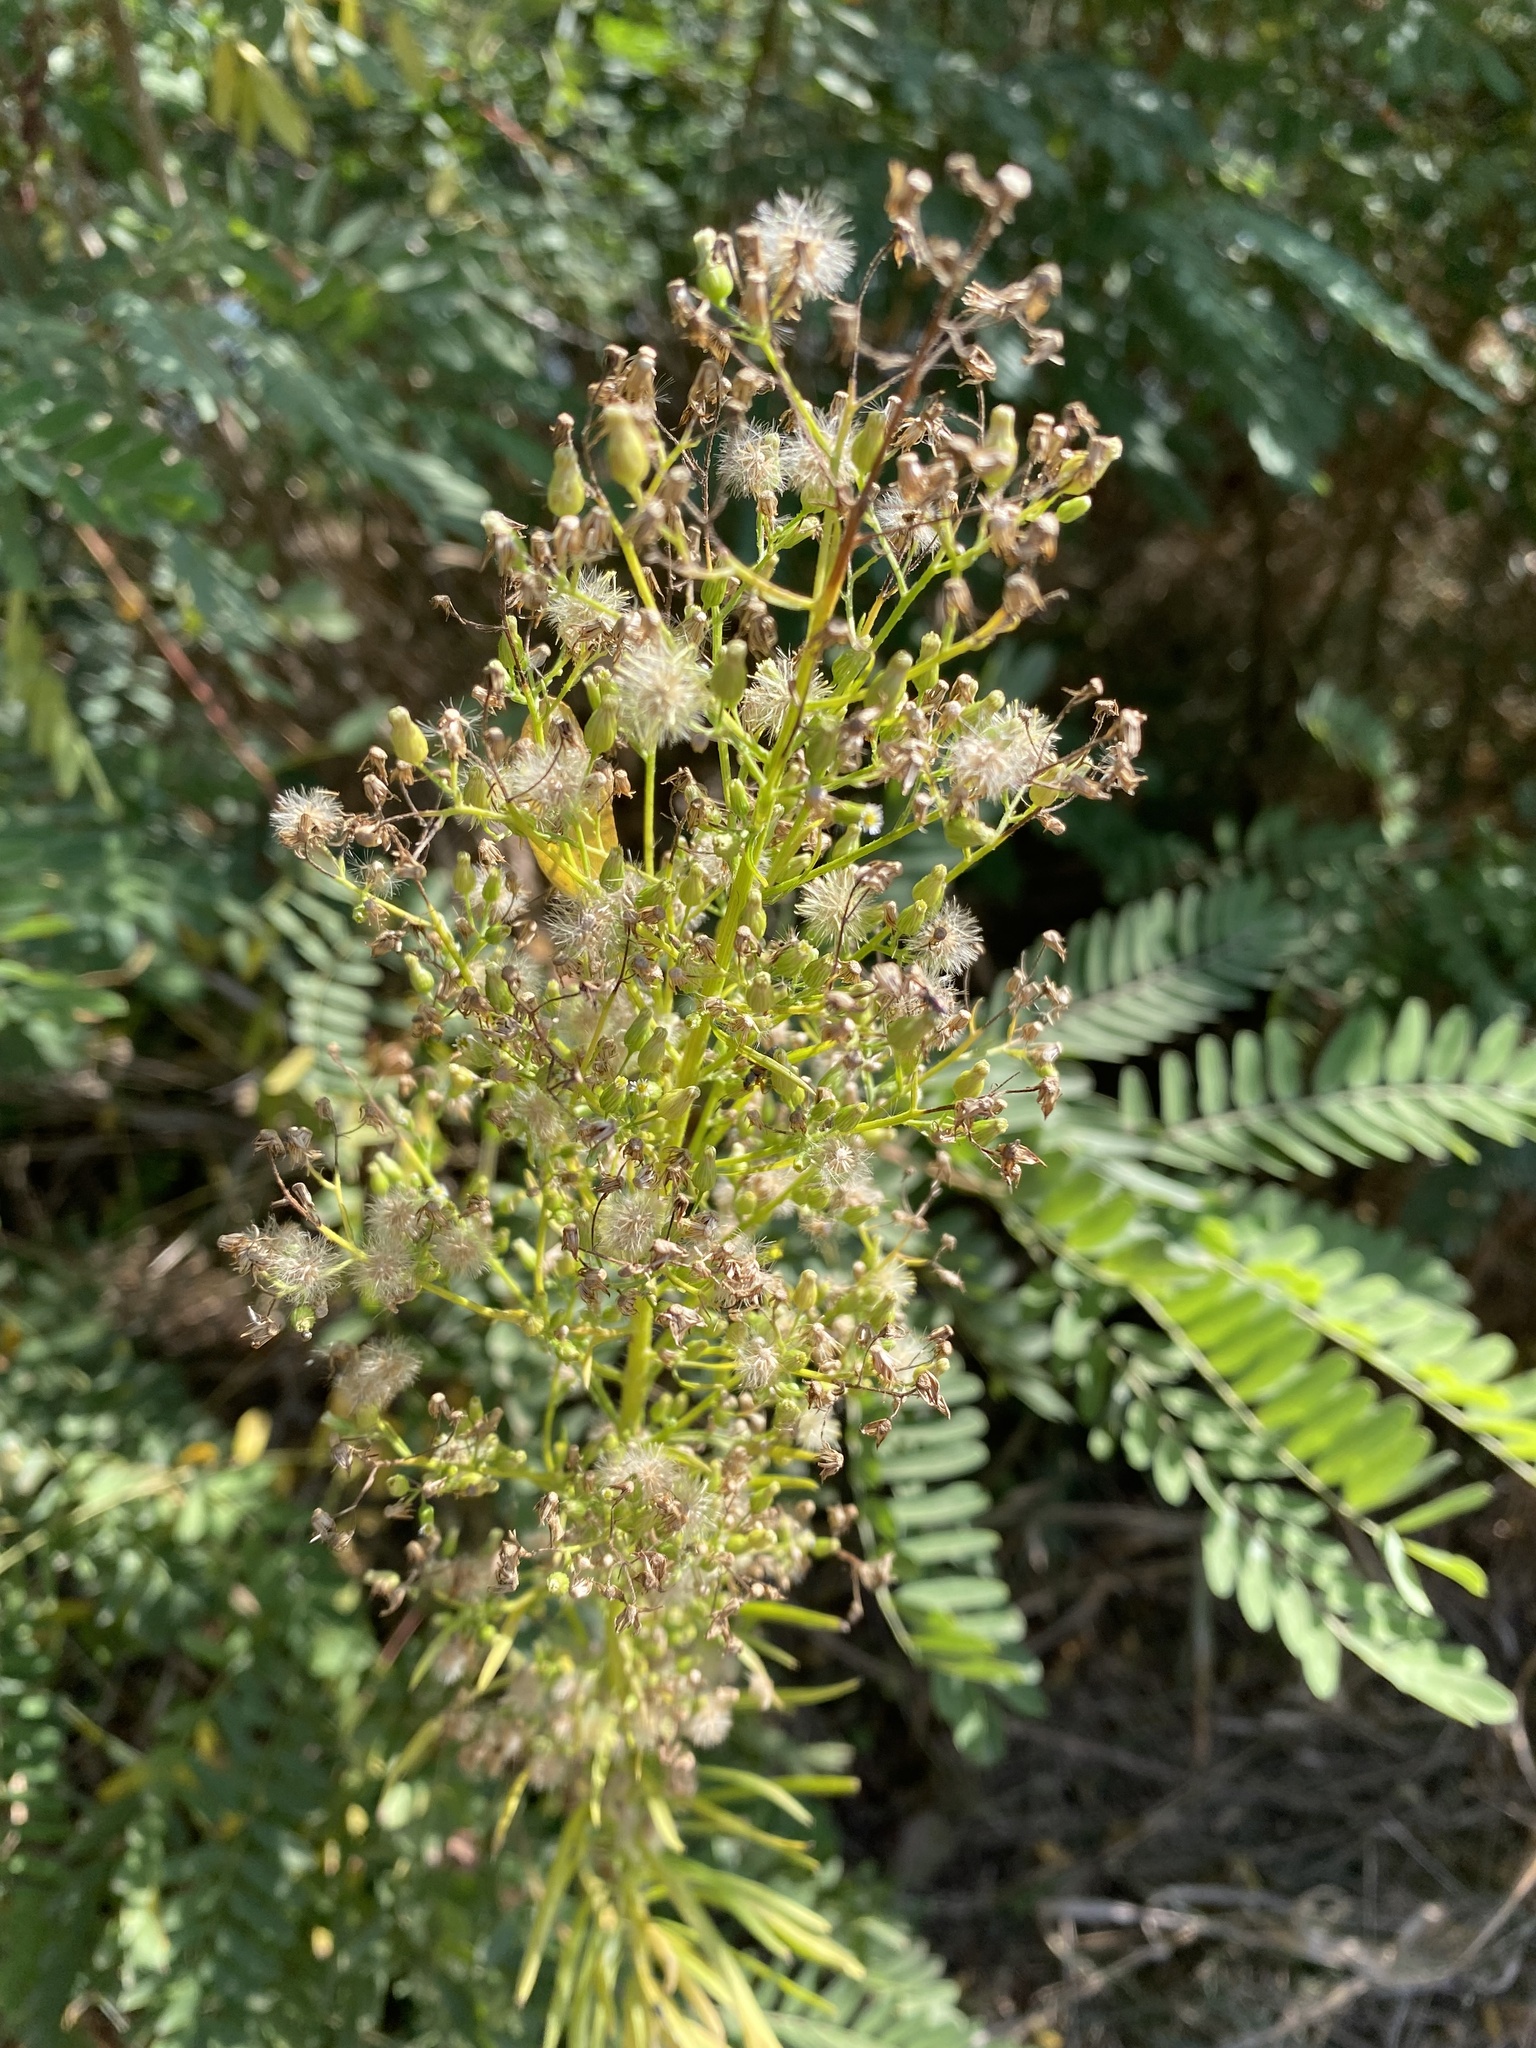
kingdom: Plantae
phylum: Tracheophyta
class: Magnoliopsida
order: Asterales
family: Asteraceae
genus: Erigeron
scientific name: Erigeron canadensis
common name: Canadian fleabane
